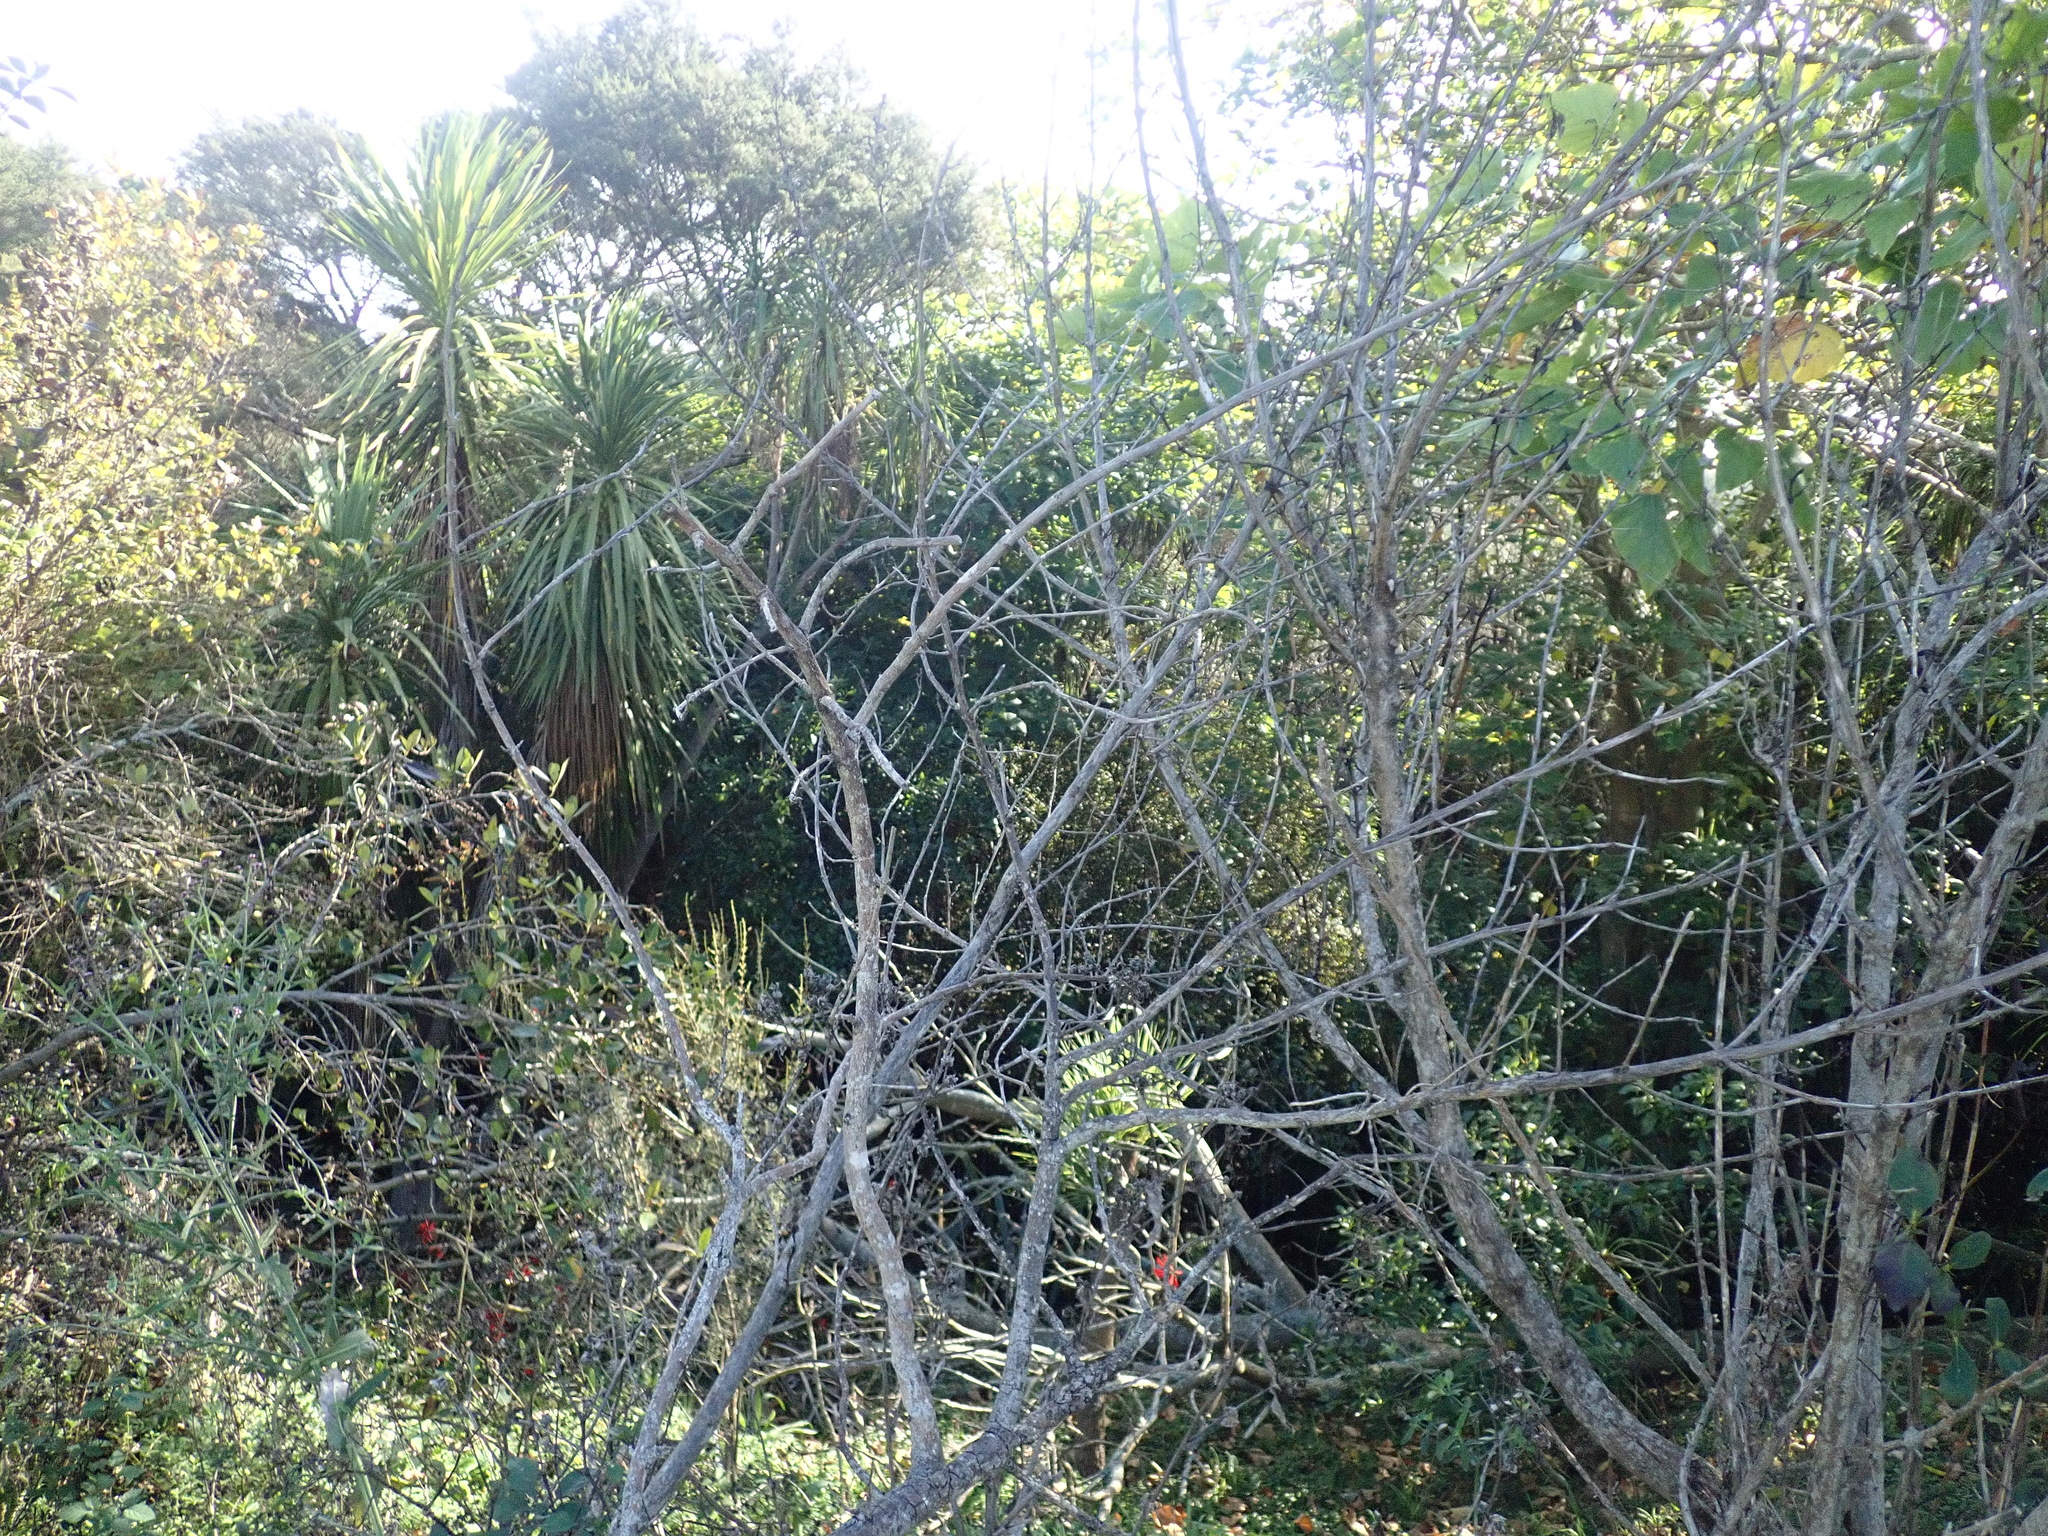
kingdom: Plantae
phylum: Tracheophyta
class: Magnoliopsida
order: Gentianales
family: Rubiaceae
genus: Coprosma
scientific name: Coprosma robusta
